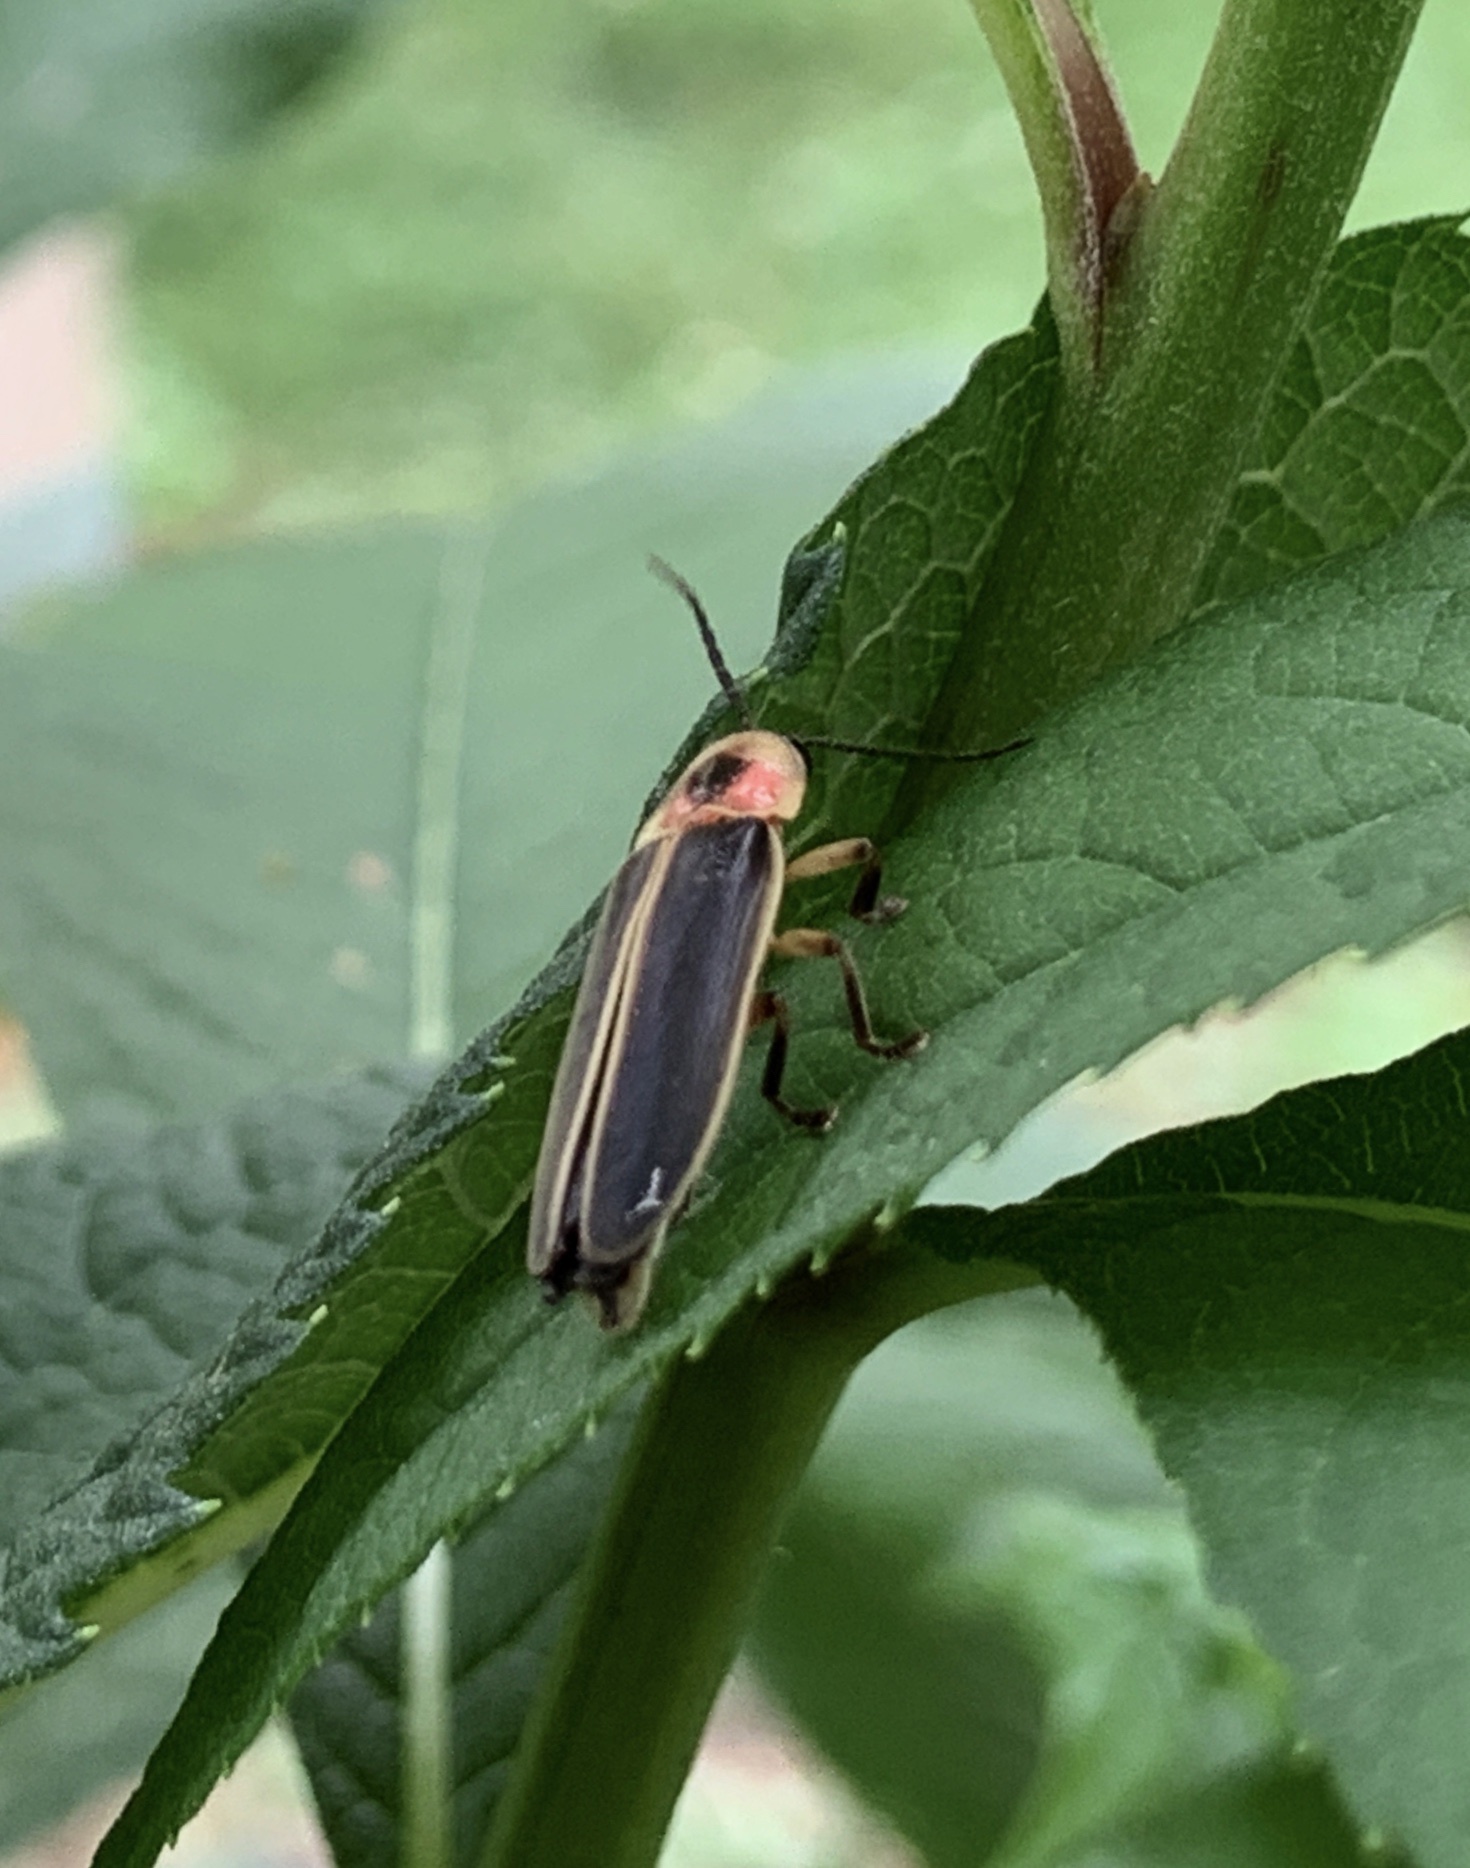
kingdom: Animalia
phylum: Arthropoda
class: Insecta
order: Coleoptera
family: Lampyridae
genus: Photinus
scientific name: Photinus pyralis
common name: Big dipper firefly
